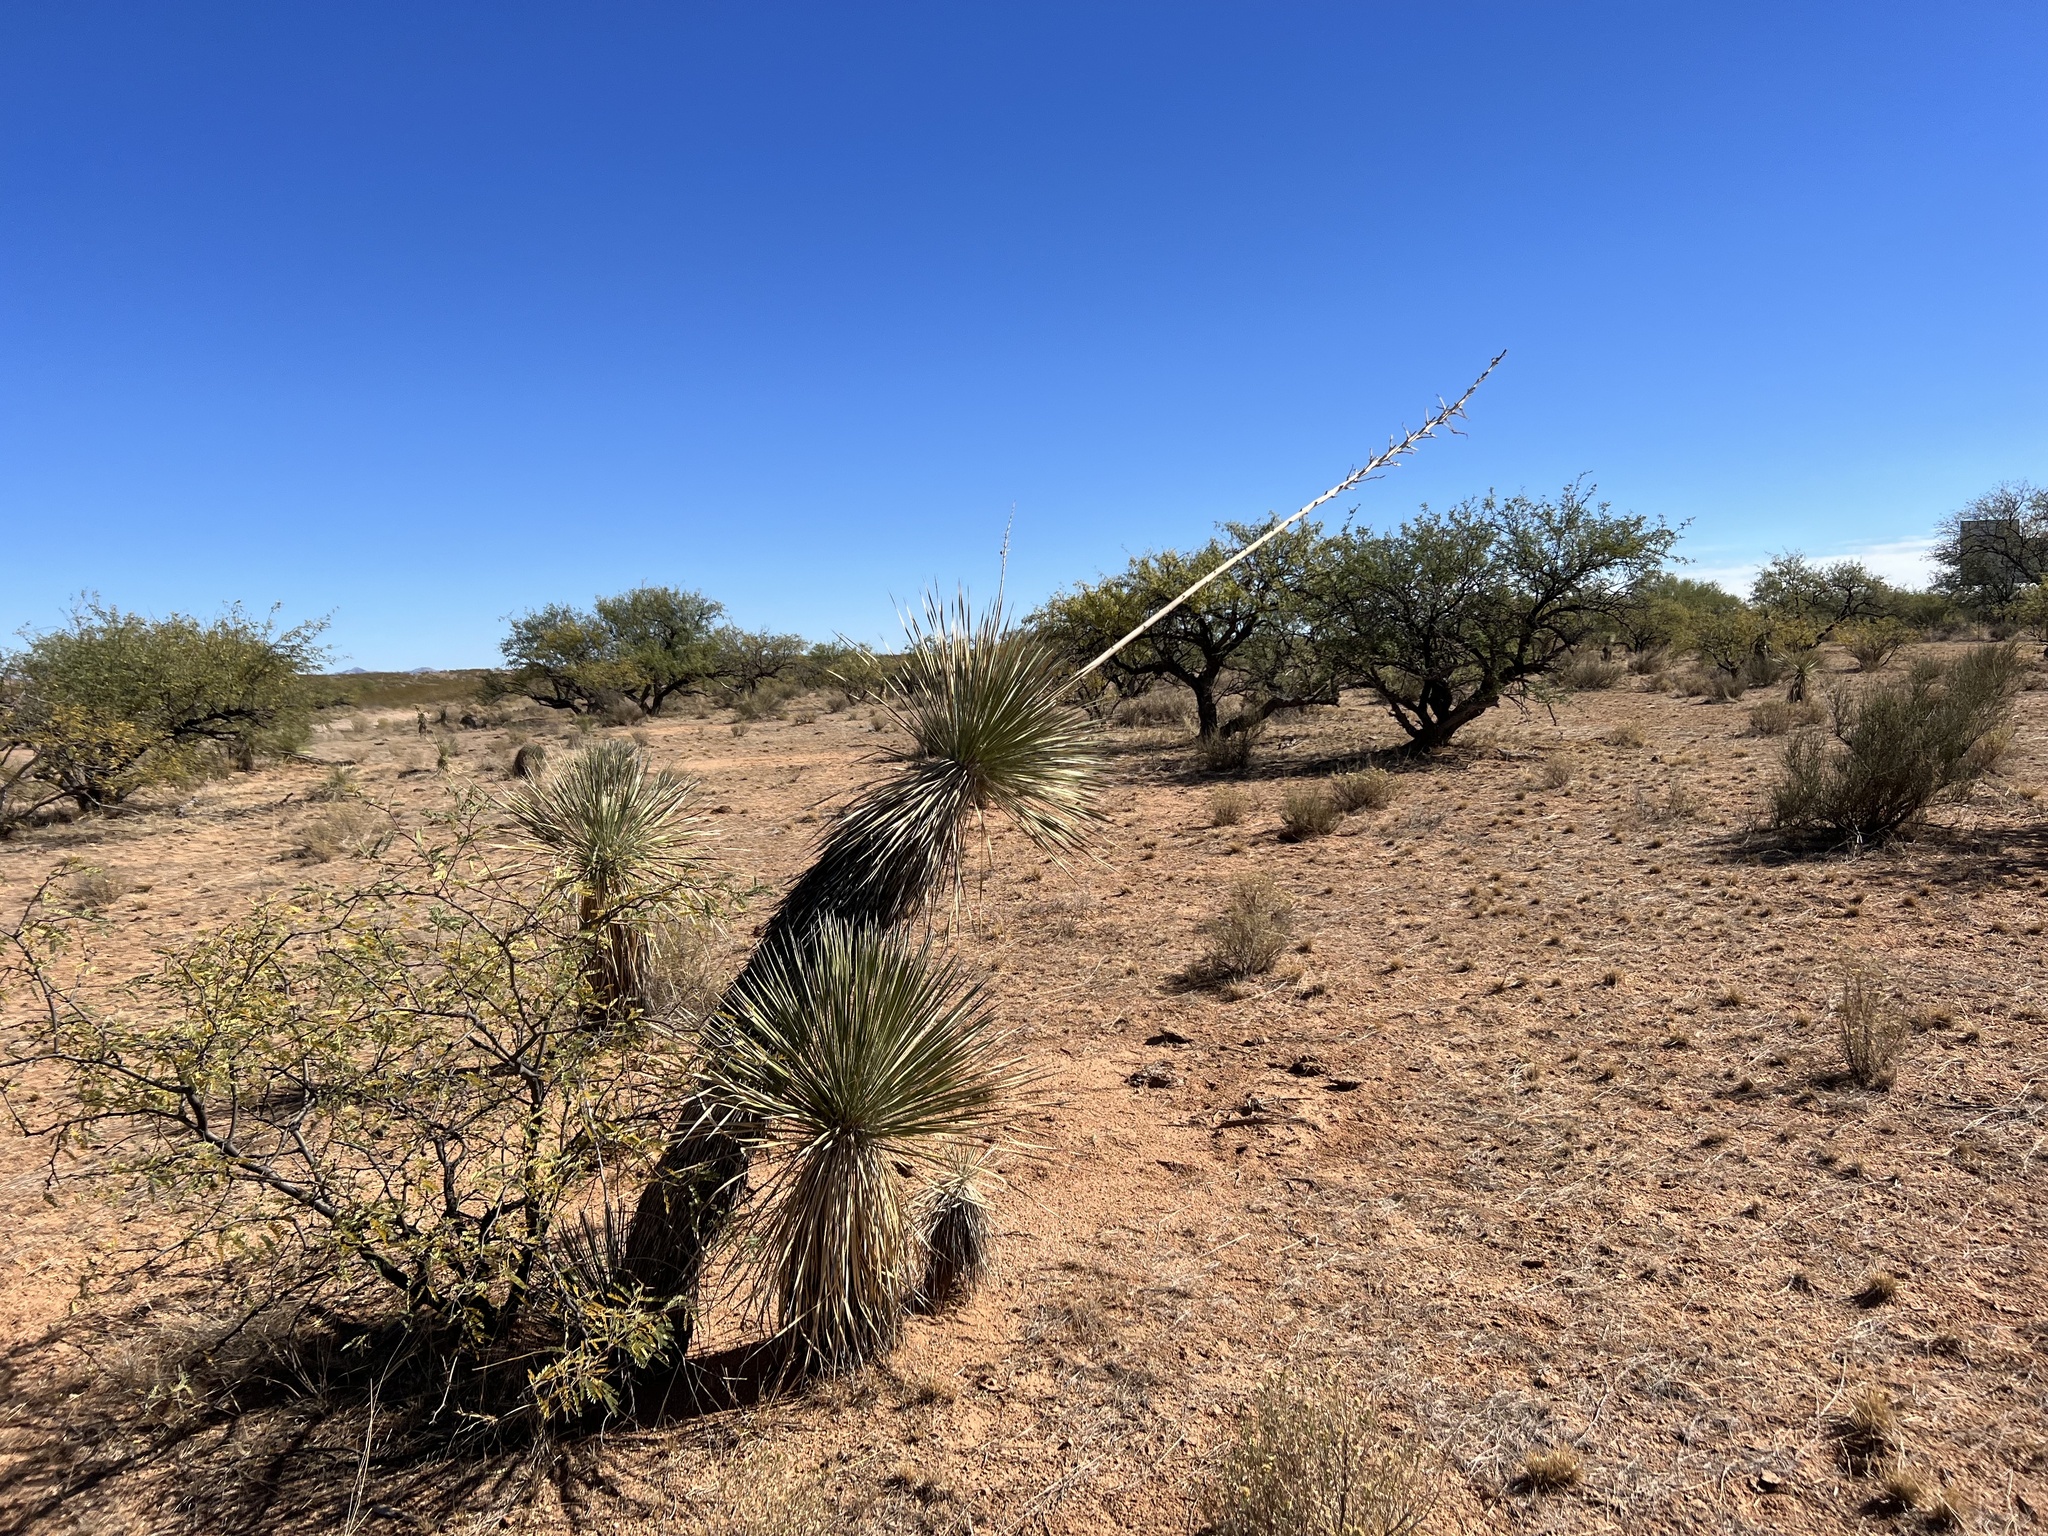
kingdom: Plantae
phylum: Tracheophyta
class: Liliopsida
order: Asparagales
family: Asparagaceae
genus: Yucca
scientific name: Yucca elata
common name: Palmella
